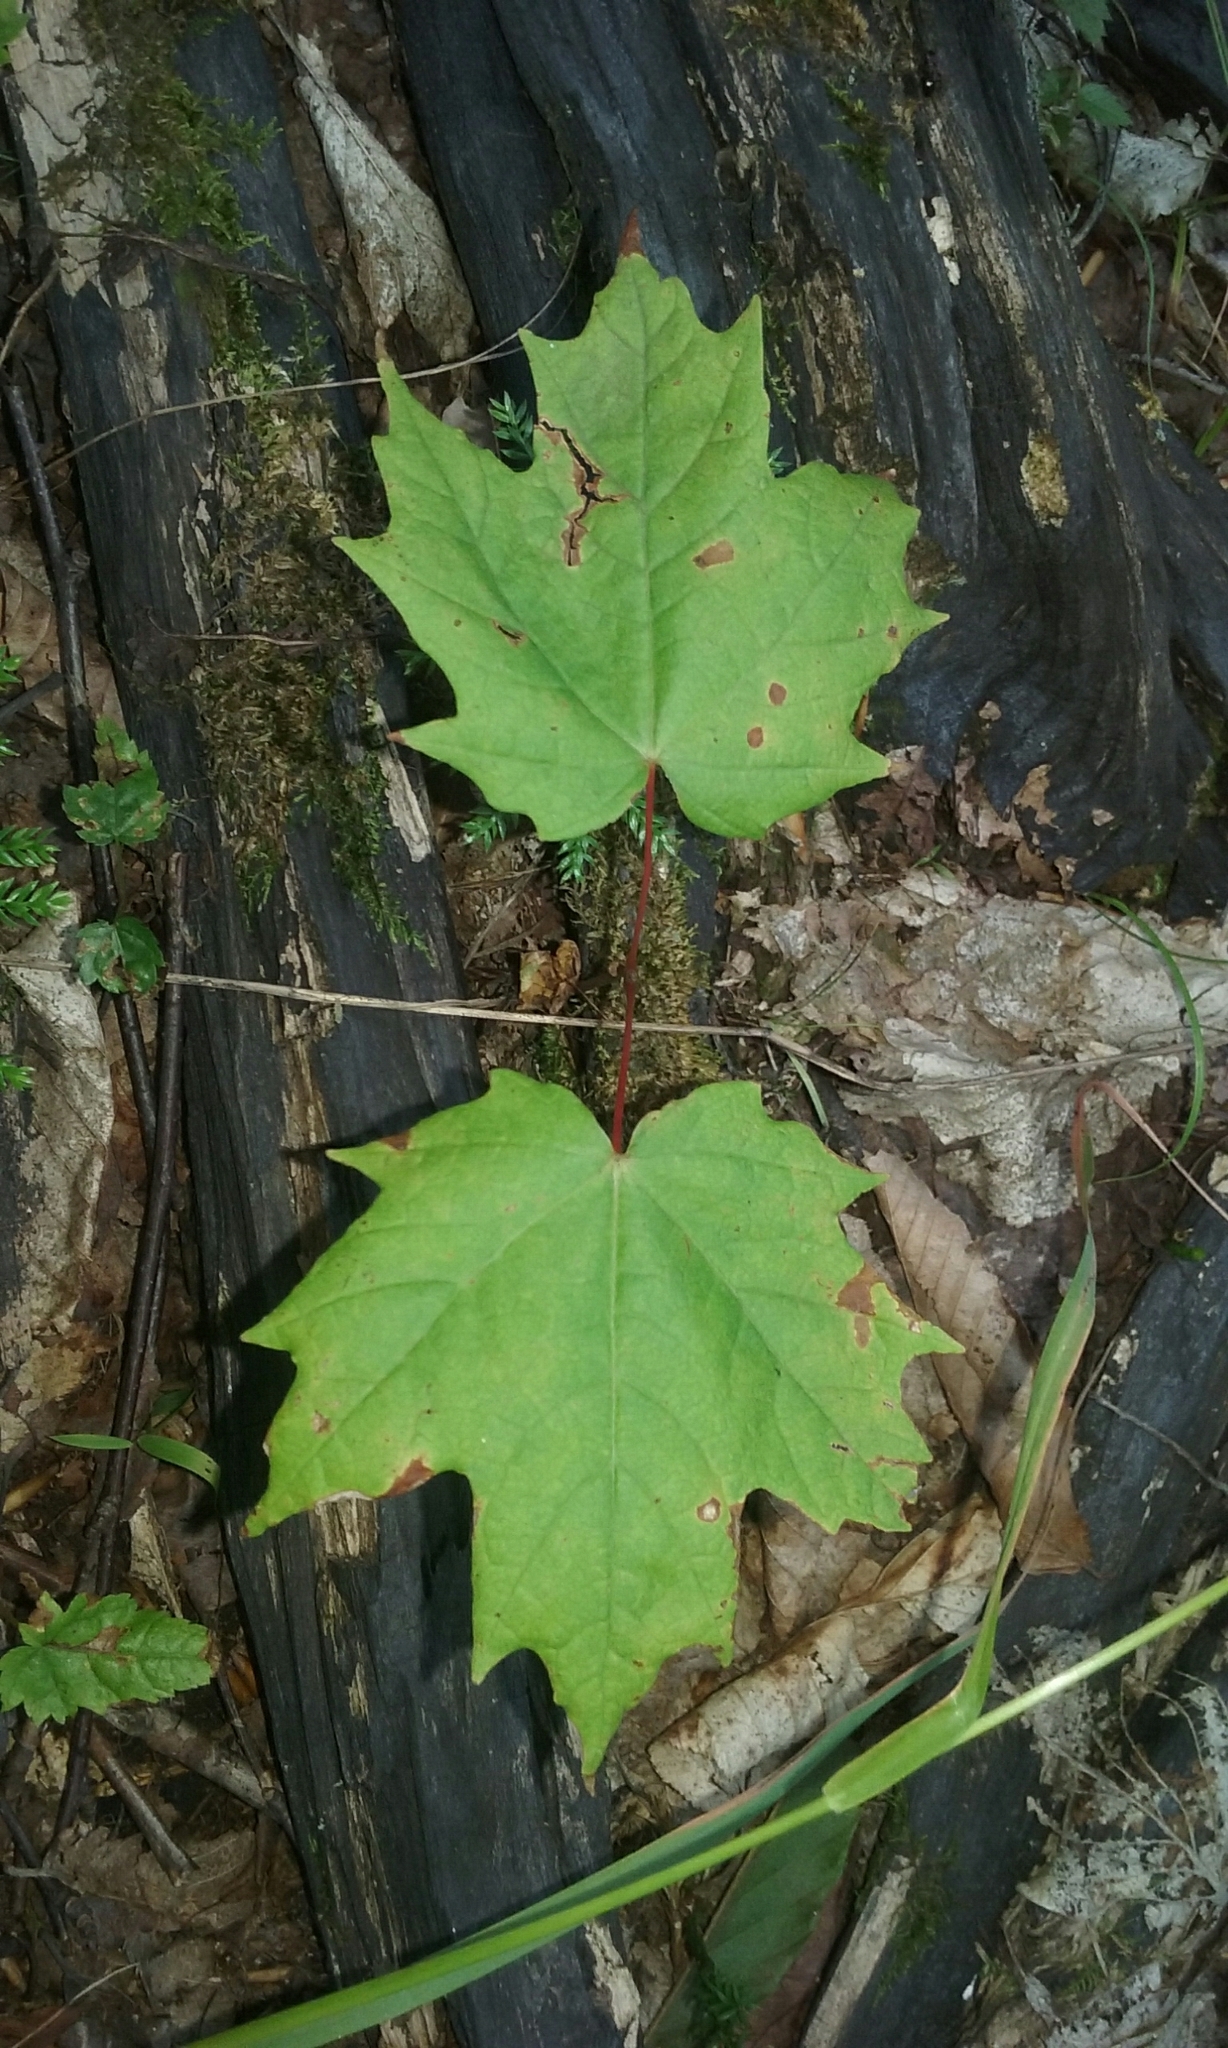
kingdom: Plantae
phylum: Tracheophyta
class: Magnoliopsida
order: Sapindales
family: Sapindaceae
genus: Acer
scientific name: Acer saccharum
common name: Sugar maple
